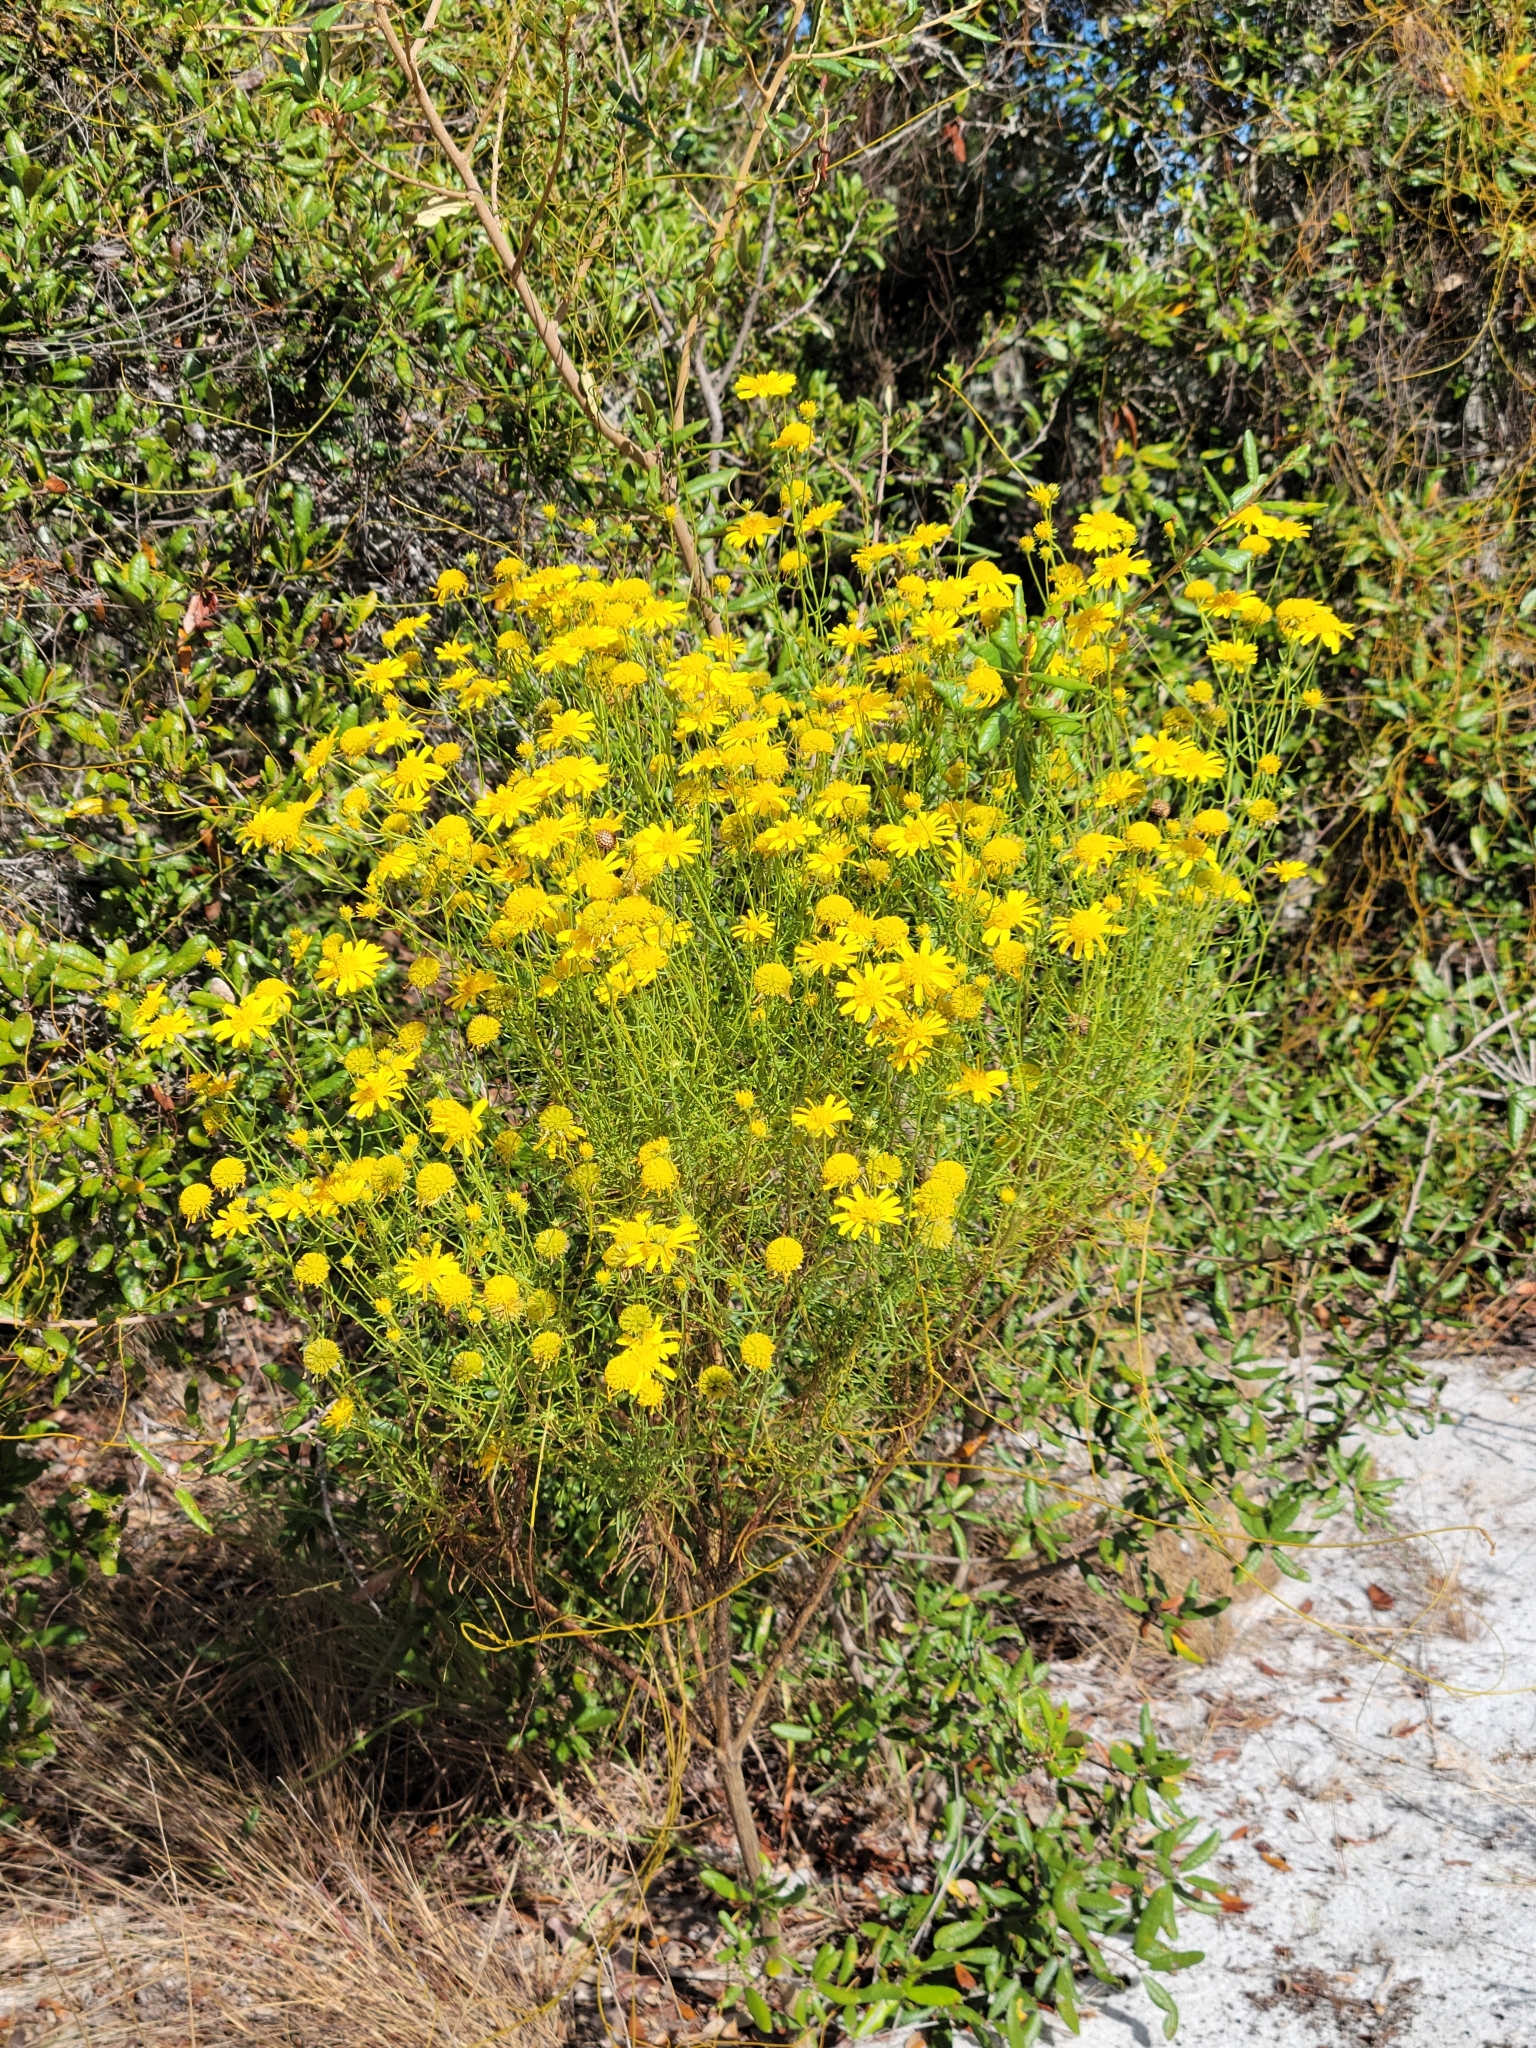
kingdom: Plantae
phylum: Tracheophyta
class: Magnoliopsida
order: Asterales
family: Asteraceae
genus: Balduina
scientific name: Balduina angustifolia
